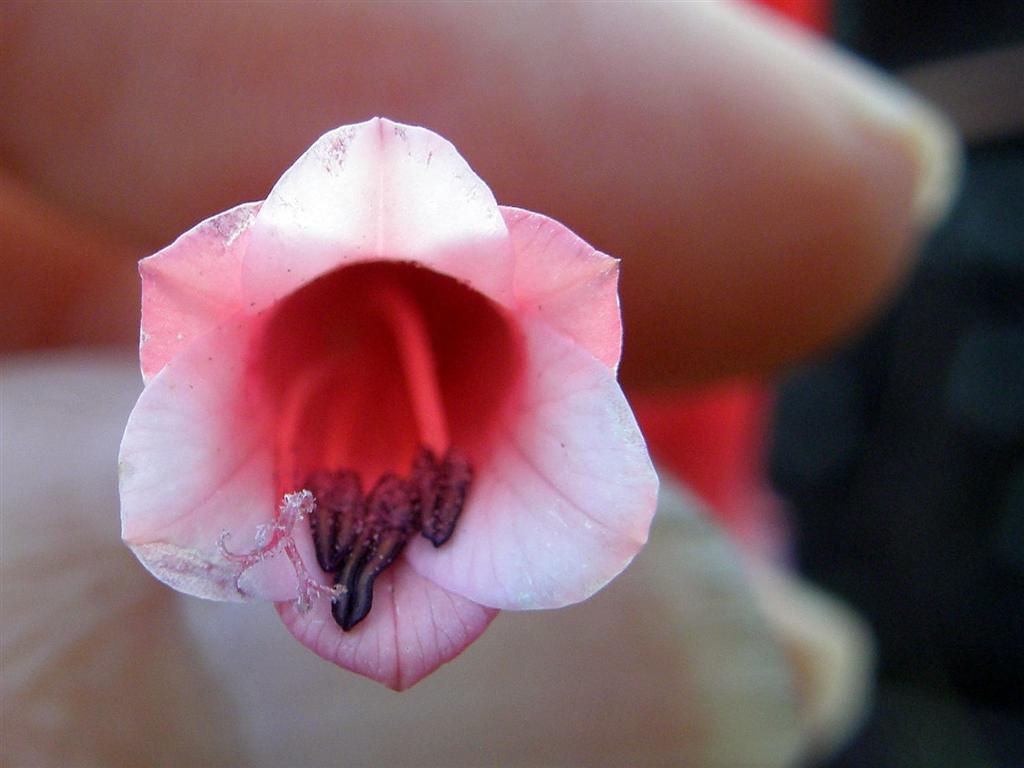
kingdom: Plantae
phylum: Tracheophyta
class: Liliopsida
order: Asparagales
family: Iridaceae
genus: Watsonia
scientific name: Watsonia aletroides
